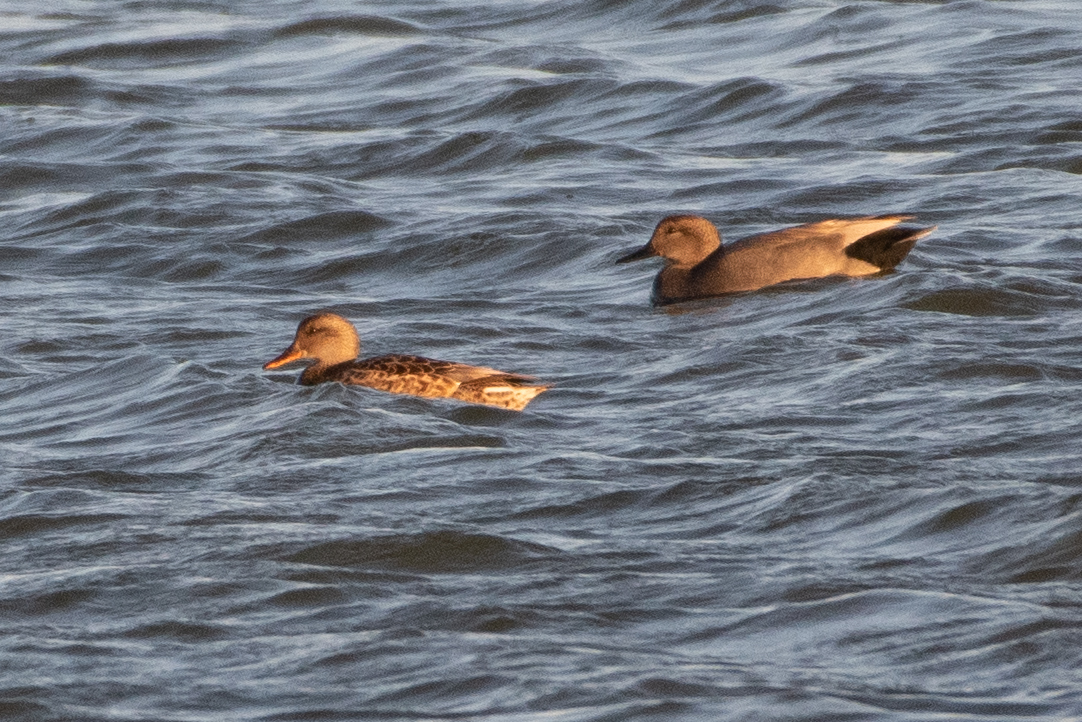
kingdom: Animalia
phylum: Chordata
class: Aves
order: Anseriformes
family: Anatidae
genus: Mareca
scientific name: Mareca strepera
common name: Gadwall
